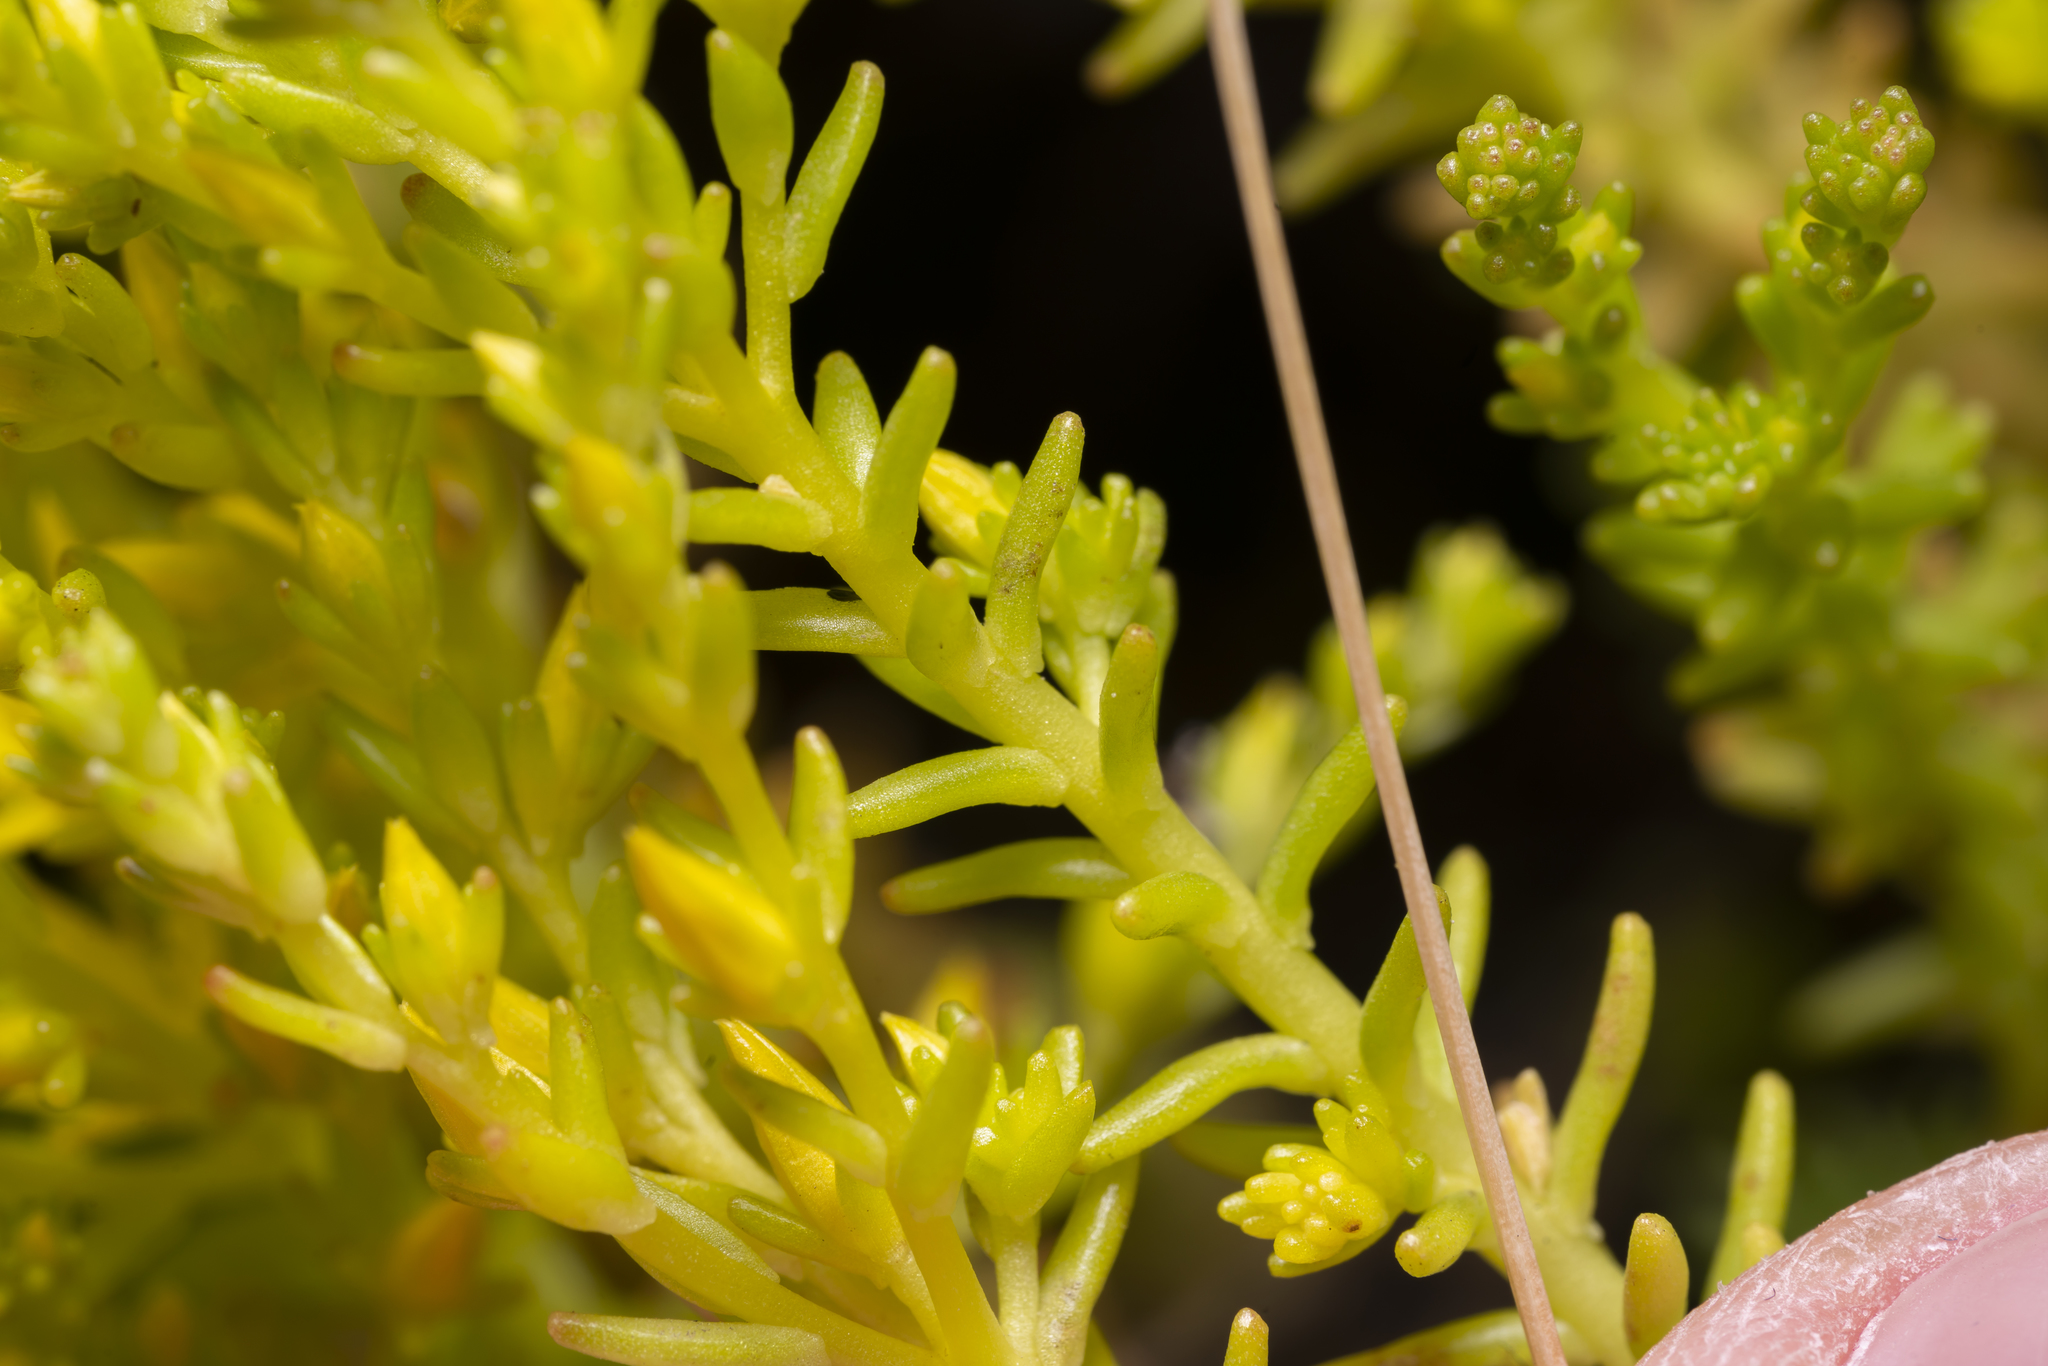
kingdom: Plantae
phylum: Tracheophyta
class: Magnoliopsida
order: Saxifragales
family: Crassulaceae
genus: Sedum
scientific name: Sedum sexangulare
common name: Tasteless stonecrop
